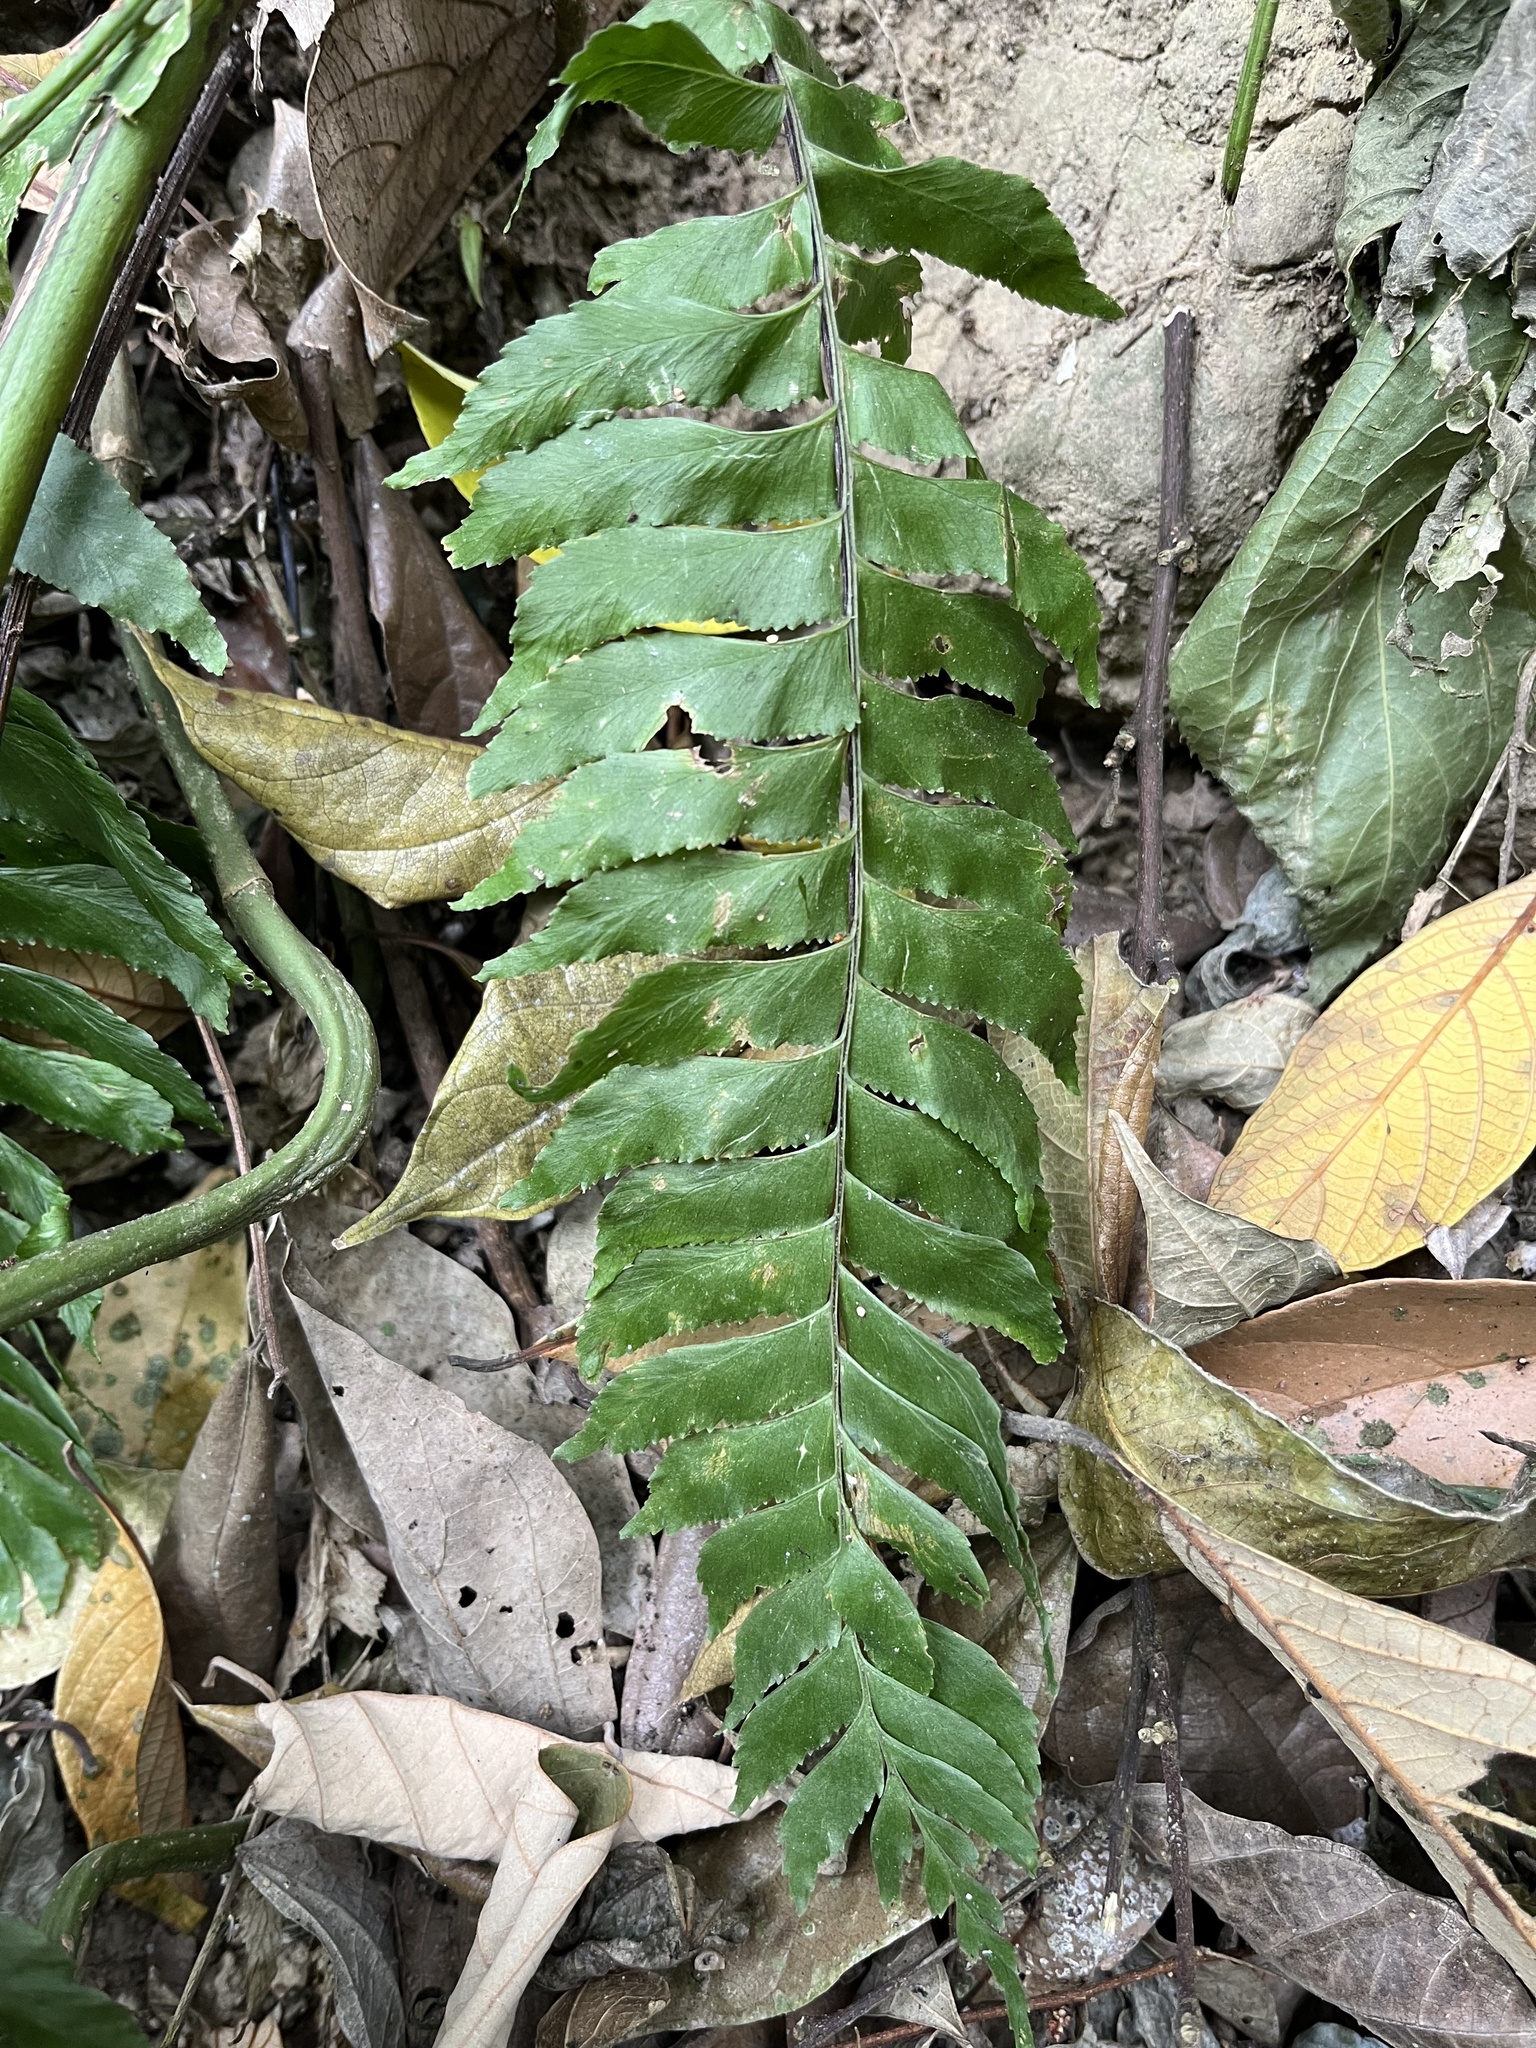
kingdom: Plantae
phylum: Tracheophyta
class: Polypodiopsida
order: Polypodiales
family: Aspleniaceae
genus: Hymenasplenium
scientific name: Hymenasplenium excisum
